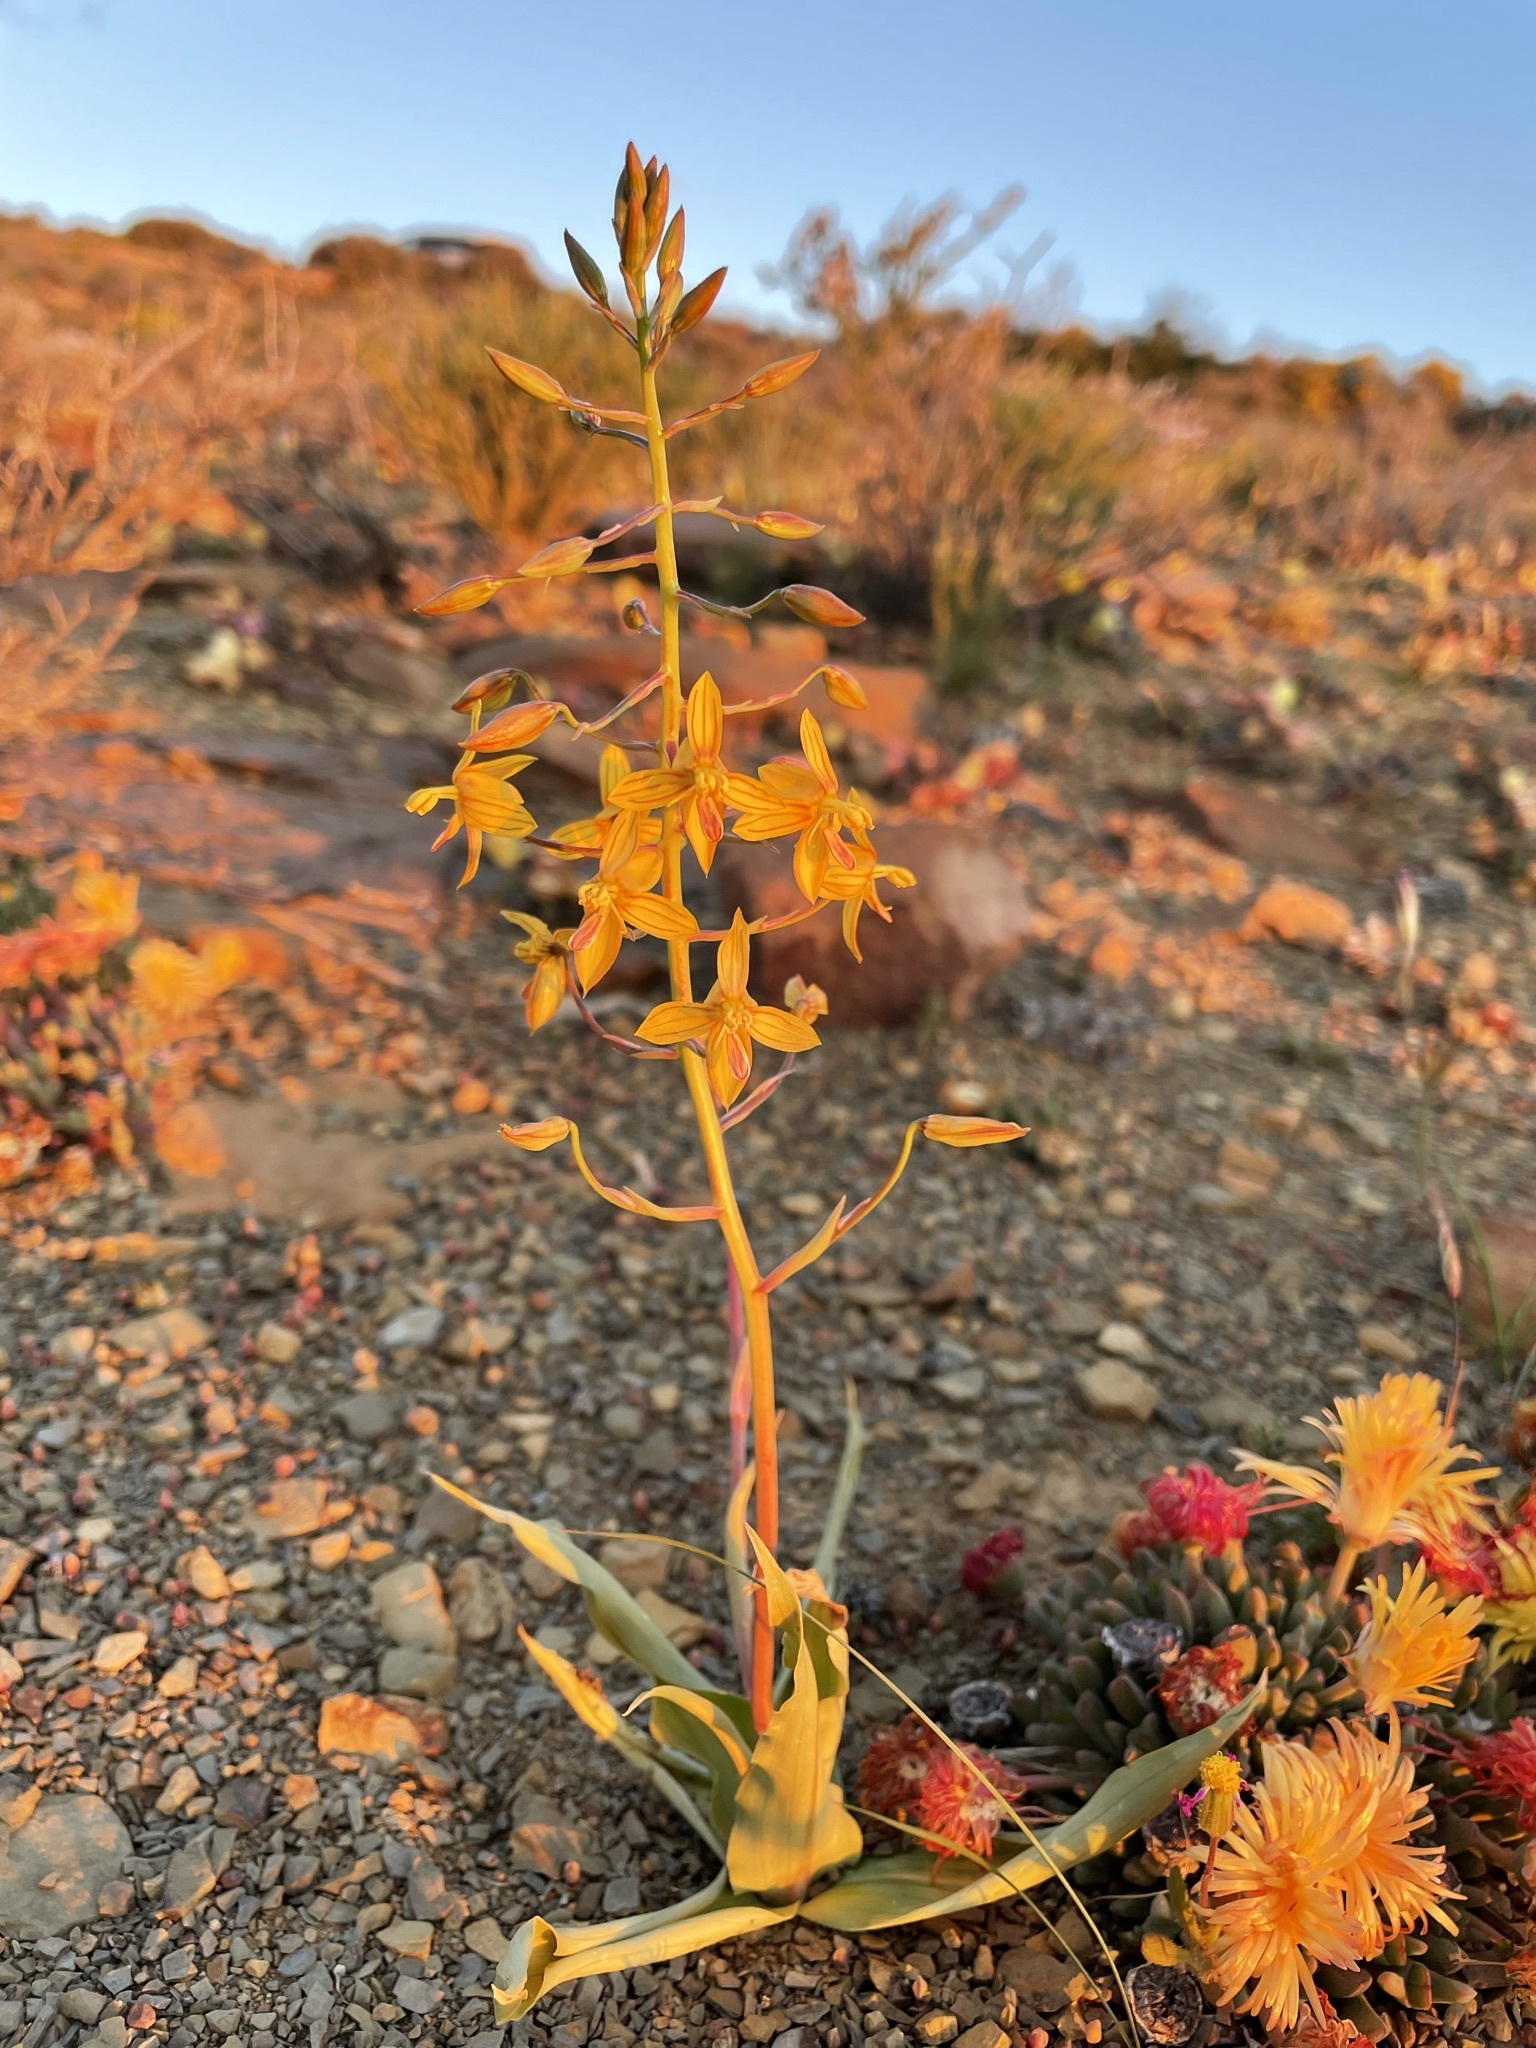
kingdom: Plantae
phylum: Tracheophyta
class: Liliopsida
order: Asparagales
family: Tecophilaeaceae
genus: Cyanella
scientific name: Cyanella lutea
